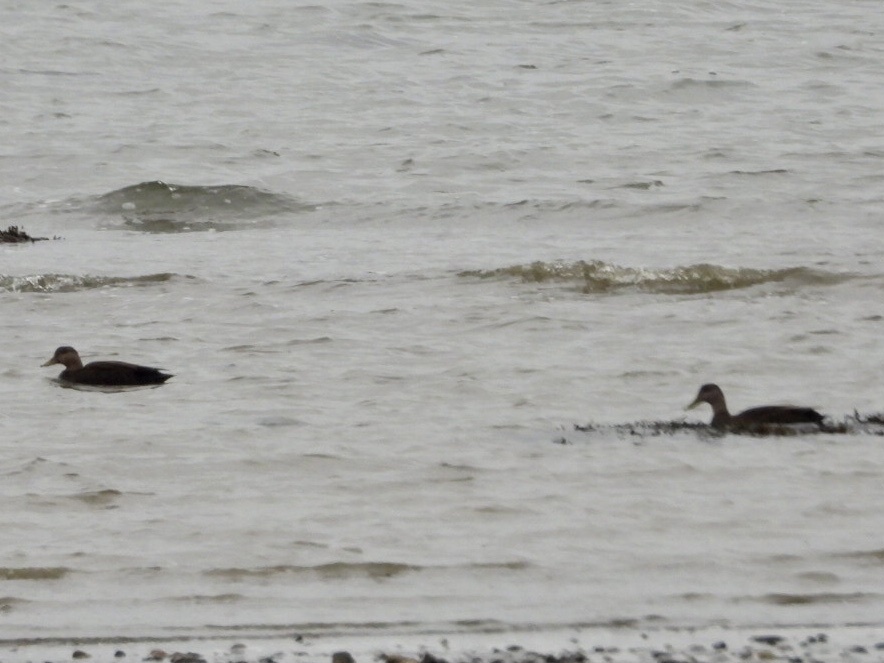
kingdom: Animalia
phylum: Chordata
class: Aves
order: Anseriformes
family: Anatidae
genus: Anas
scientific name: Anas rubripes
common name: American black duck
